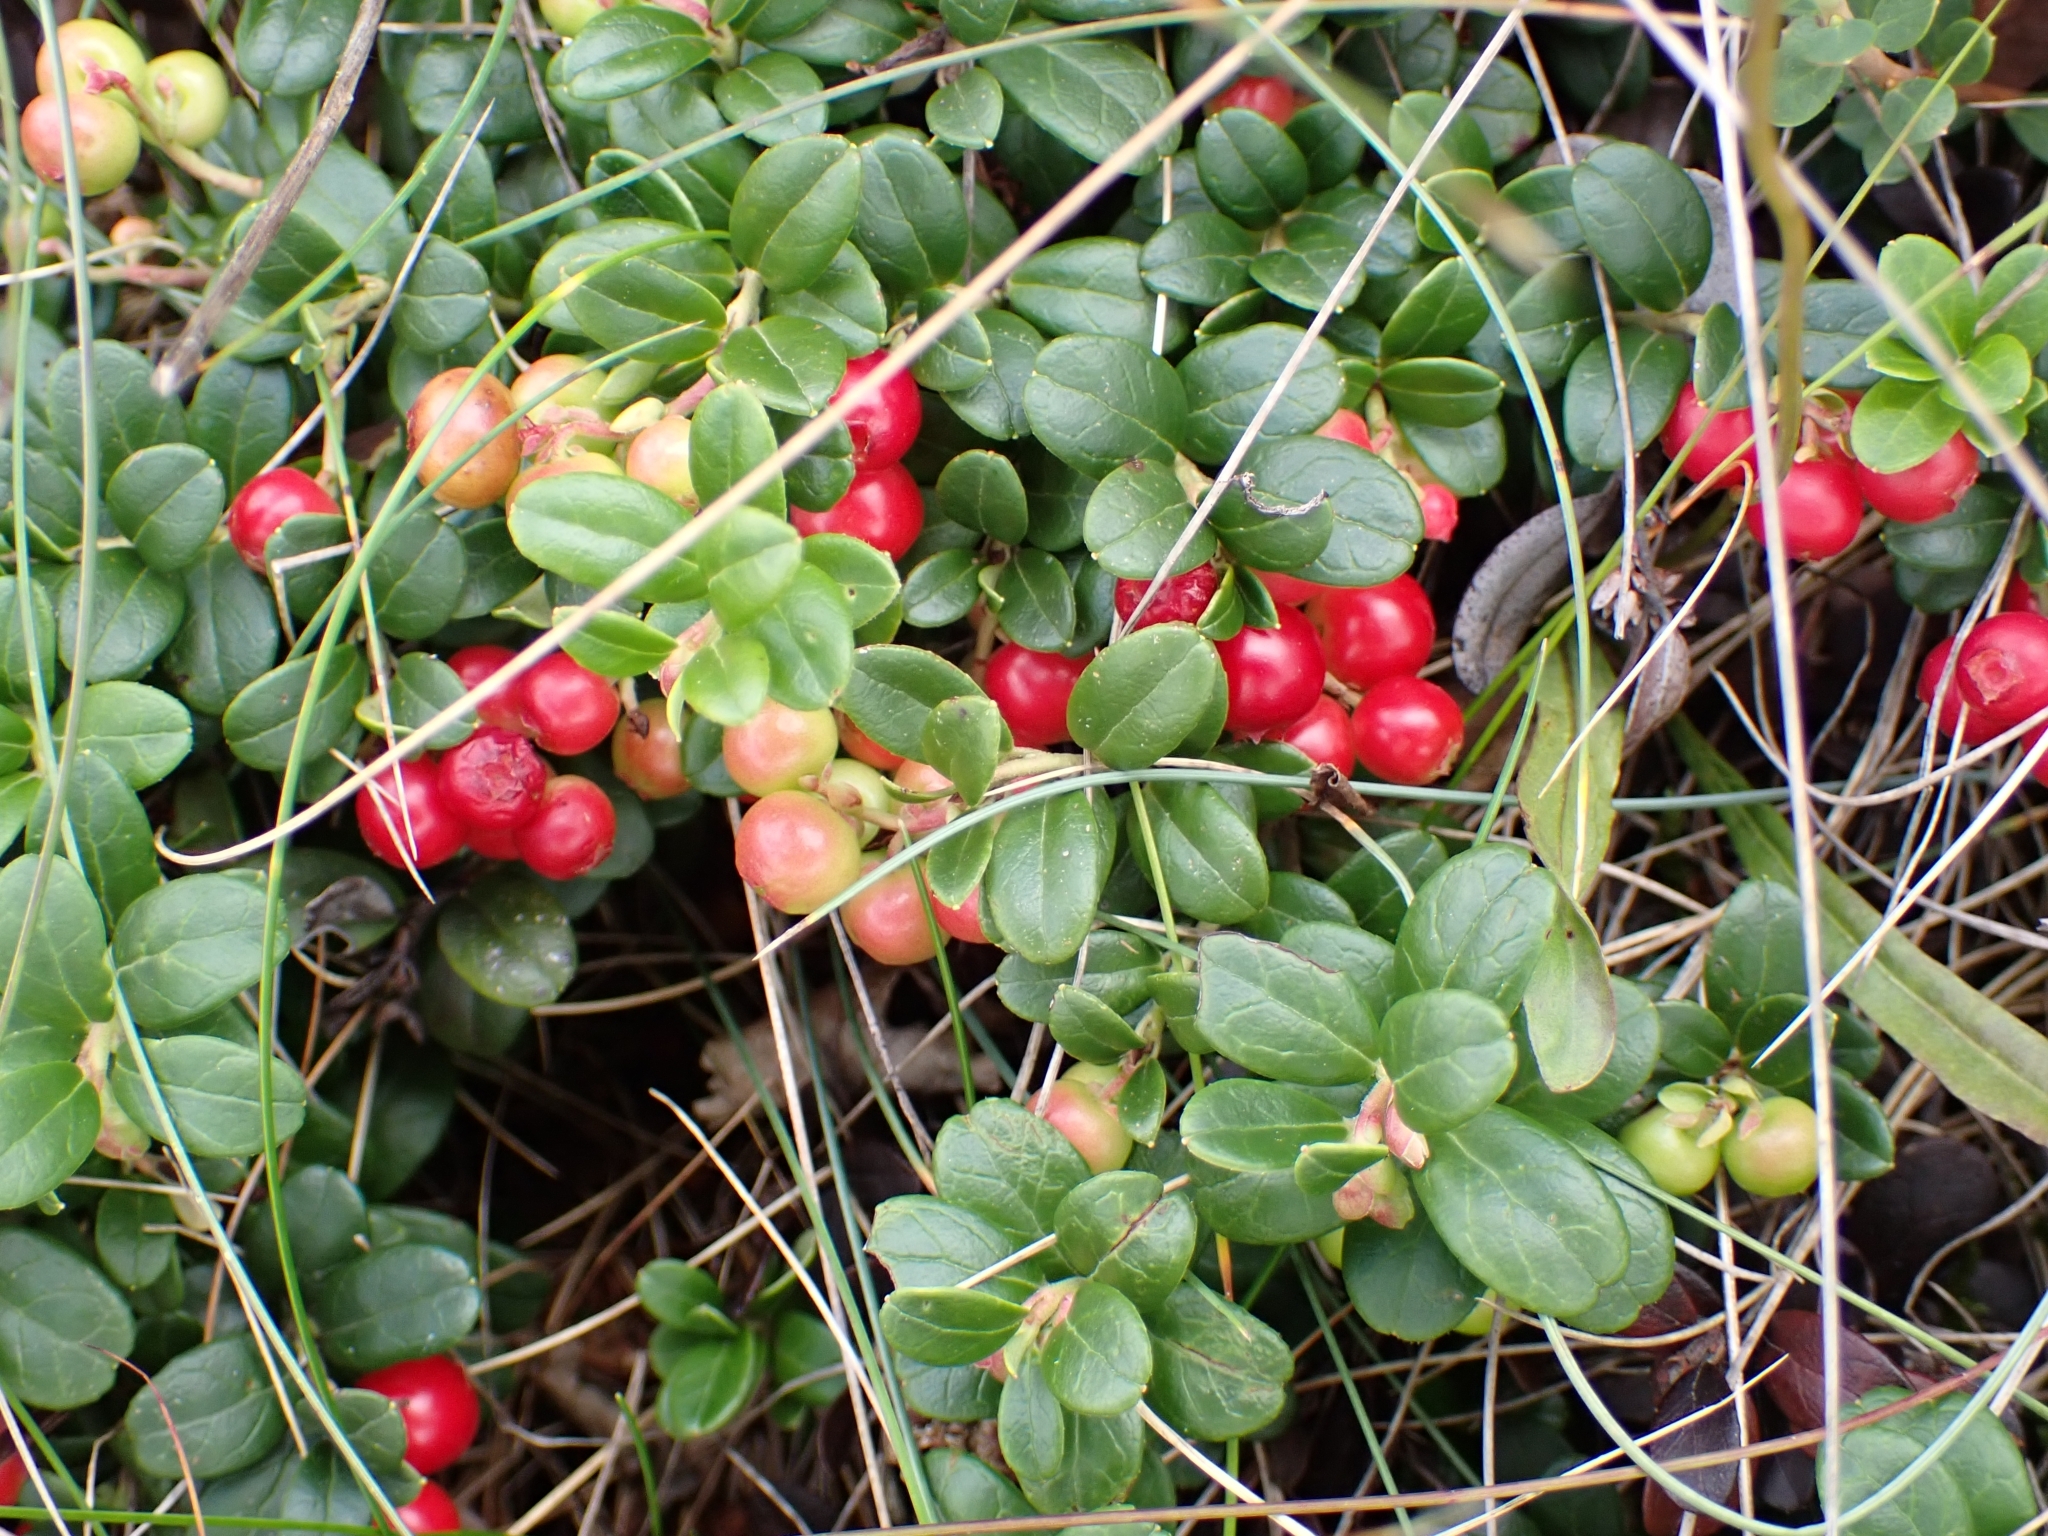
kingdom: Plantae
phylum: Tracheophyta
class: Magnoliopsida
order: Ericales
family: Ericaceae
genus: Vaccinium
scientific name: Vaccinium vitis-idaea
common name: Cowberry
